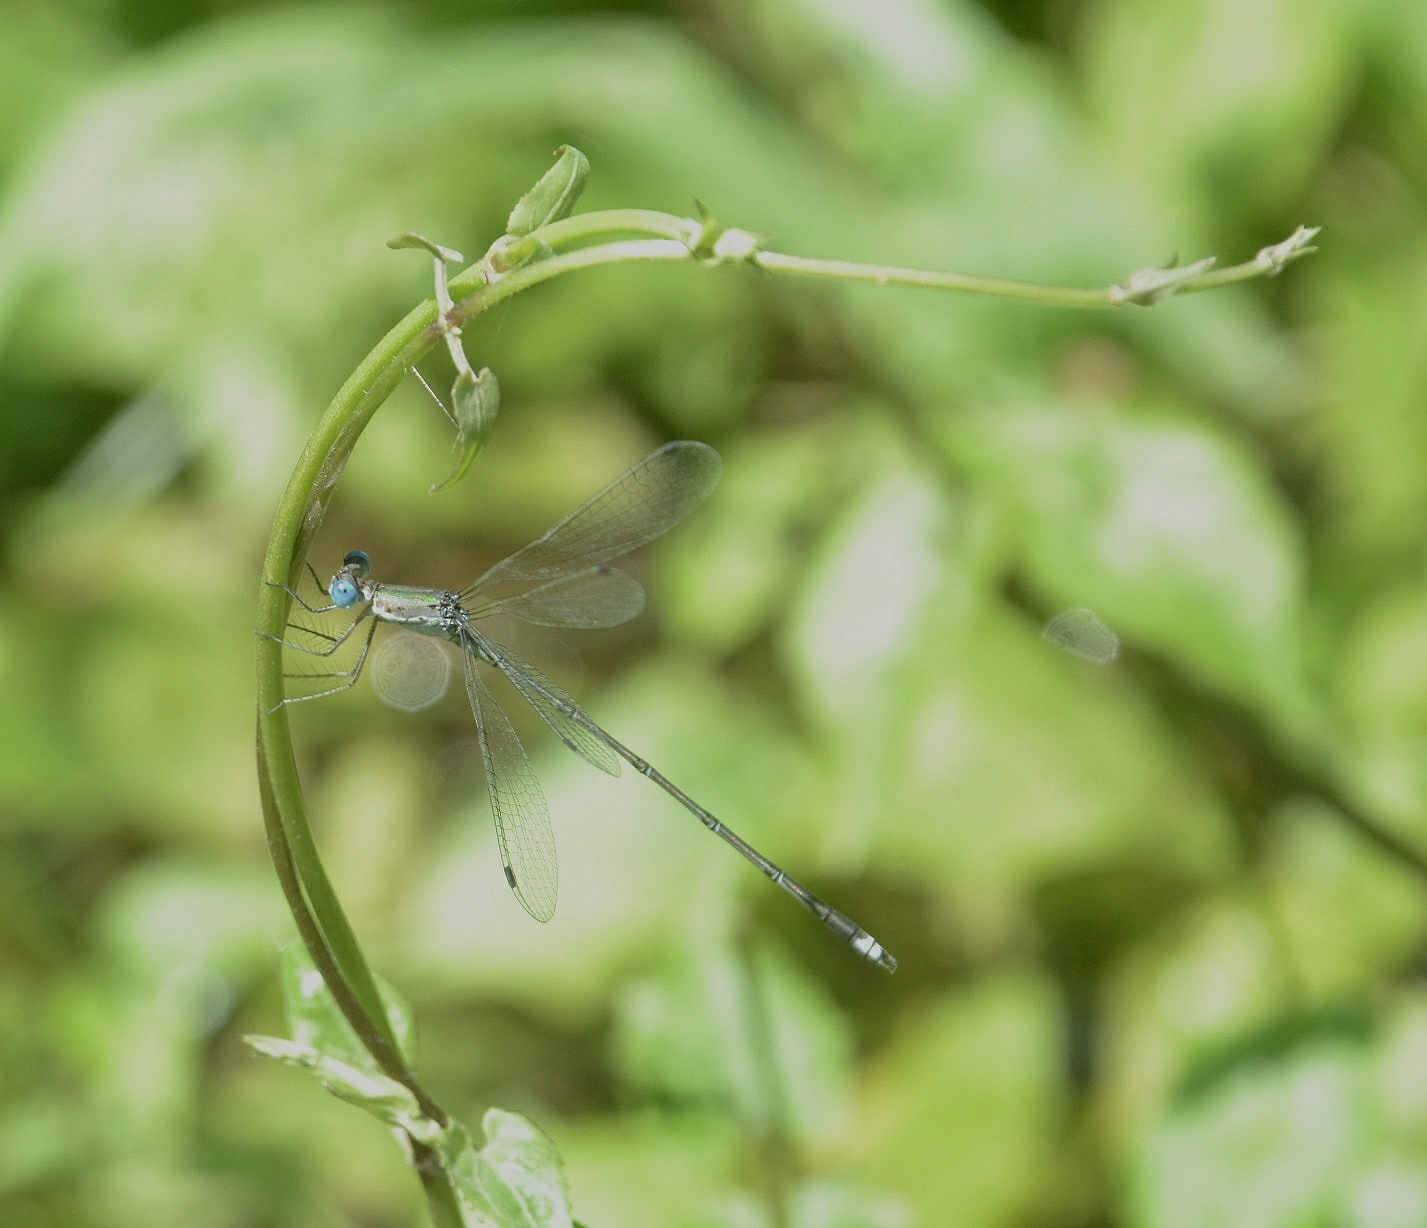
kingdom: Animalia
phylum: Arthropoda
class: Insecta
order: Odonata
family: Lestidae
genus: Lestes
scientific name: Lestes elatus
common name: Emerald spreadwing
